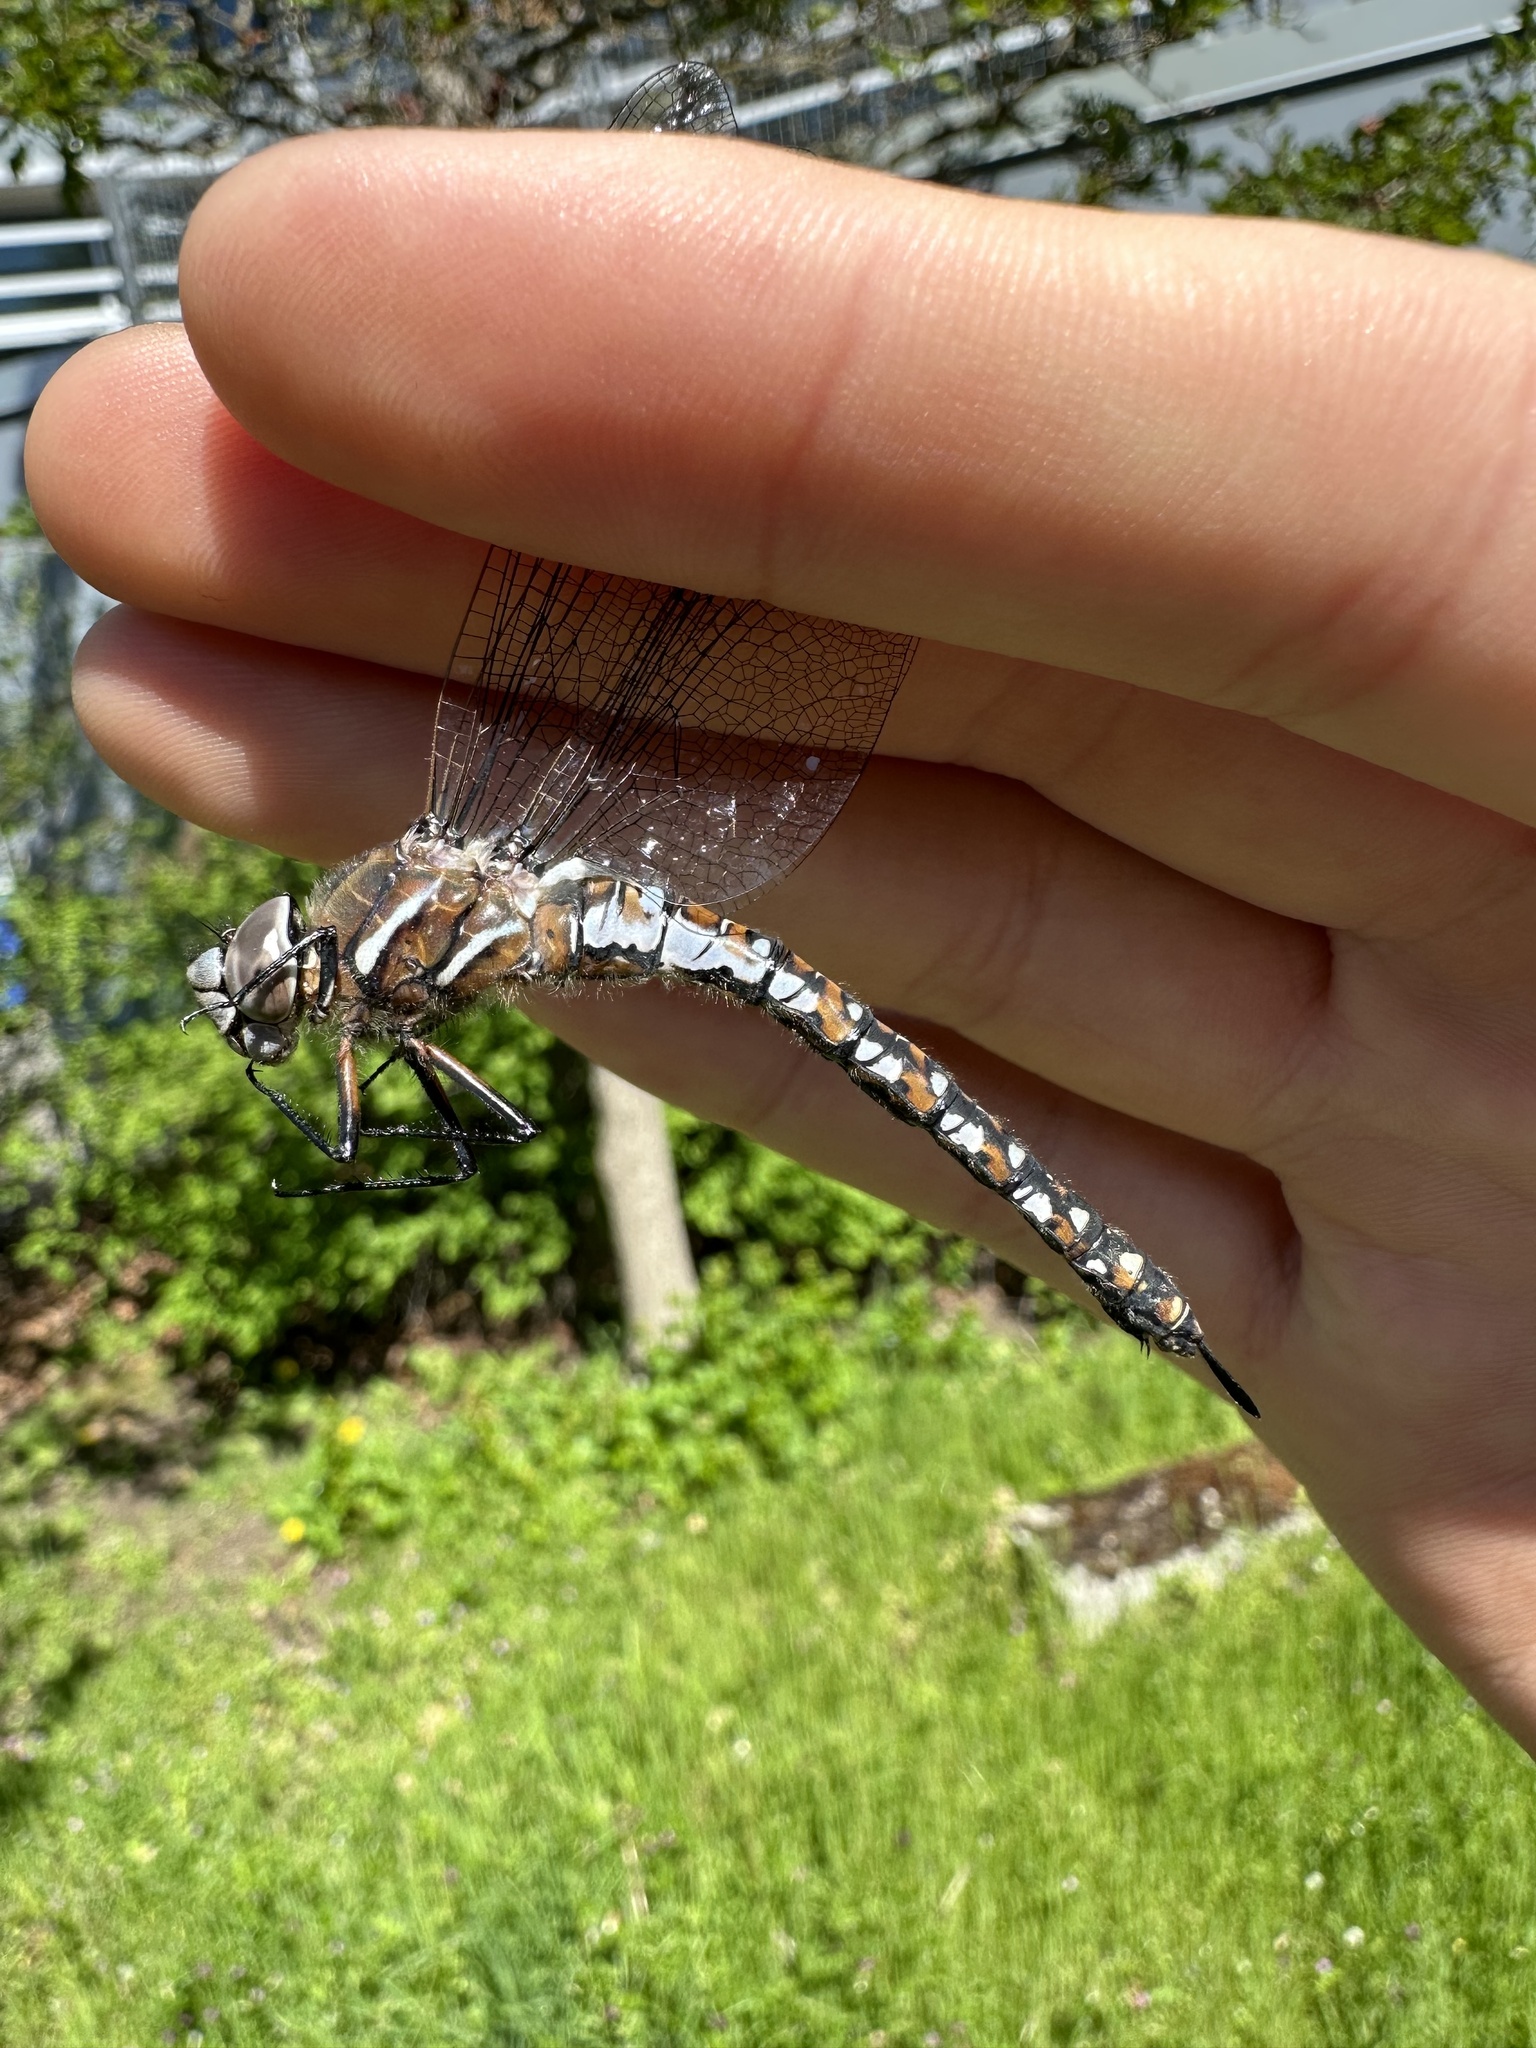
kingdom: Animalia
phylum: Arthropoda
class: Insecta
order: Odonata
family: Aeshnidae
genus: Rhionaeschna
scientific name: Rhionaeschna californica
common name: California darner
